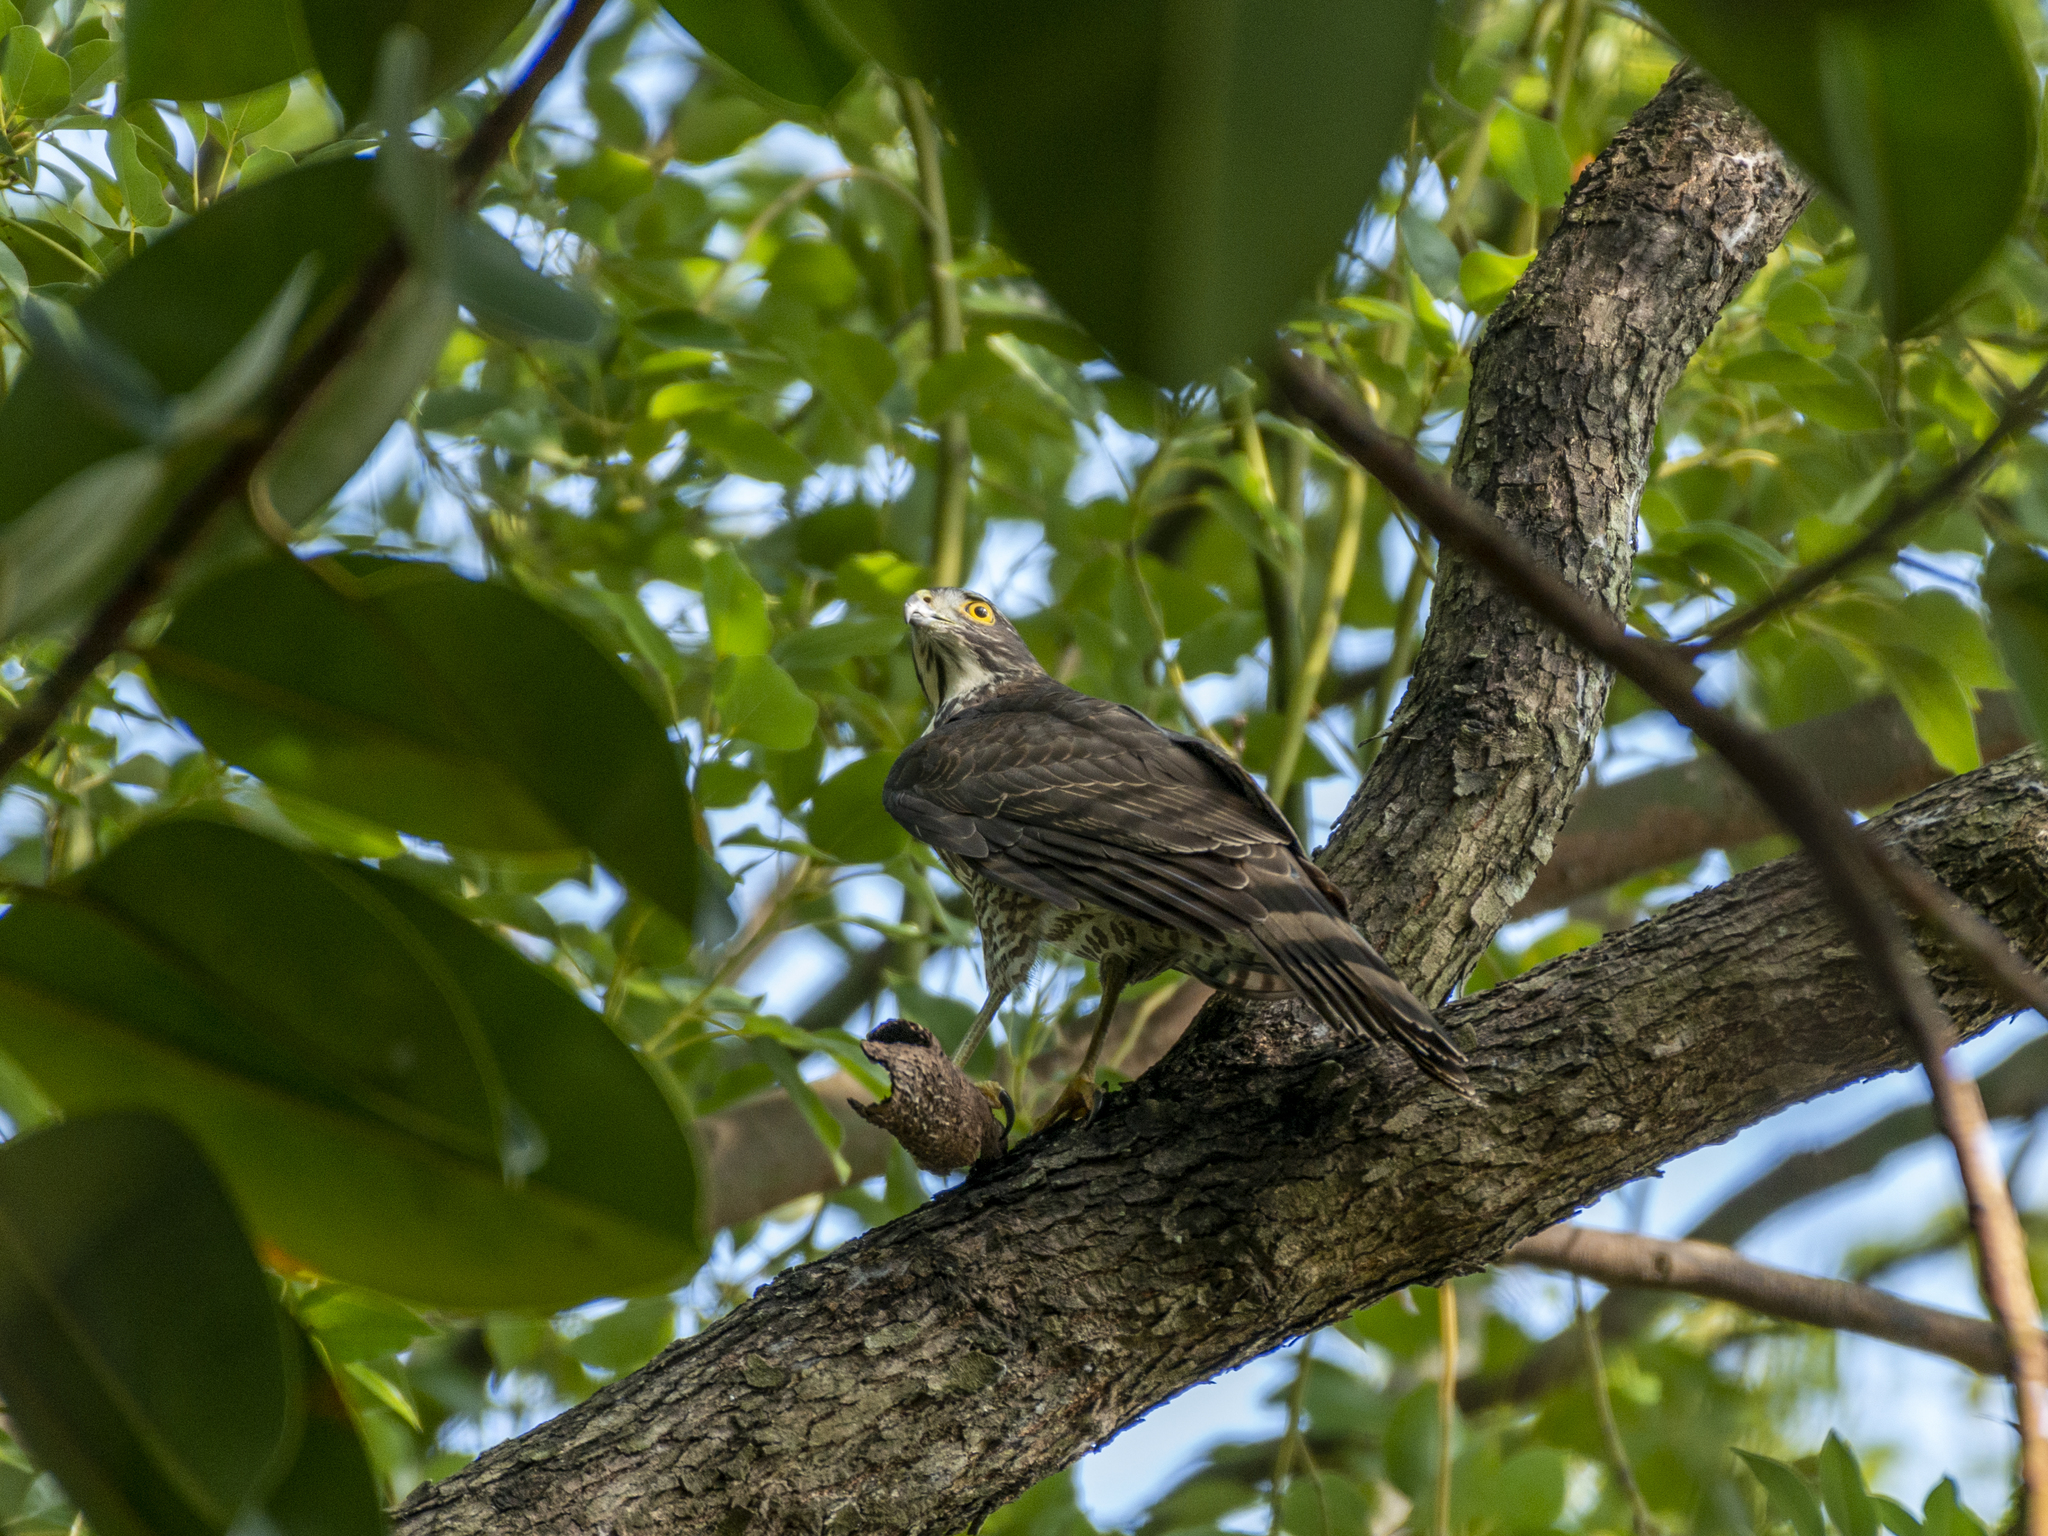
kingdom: Animalia
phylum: Chordata
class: Aves
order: Accipitriformes
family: Accipitridae
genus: Accipiter
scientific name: Accipiter trivirgatus
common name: Crested goshawk
